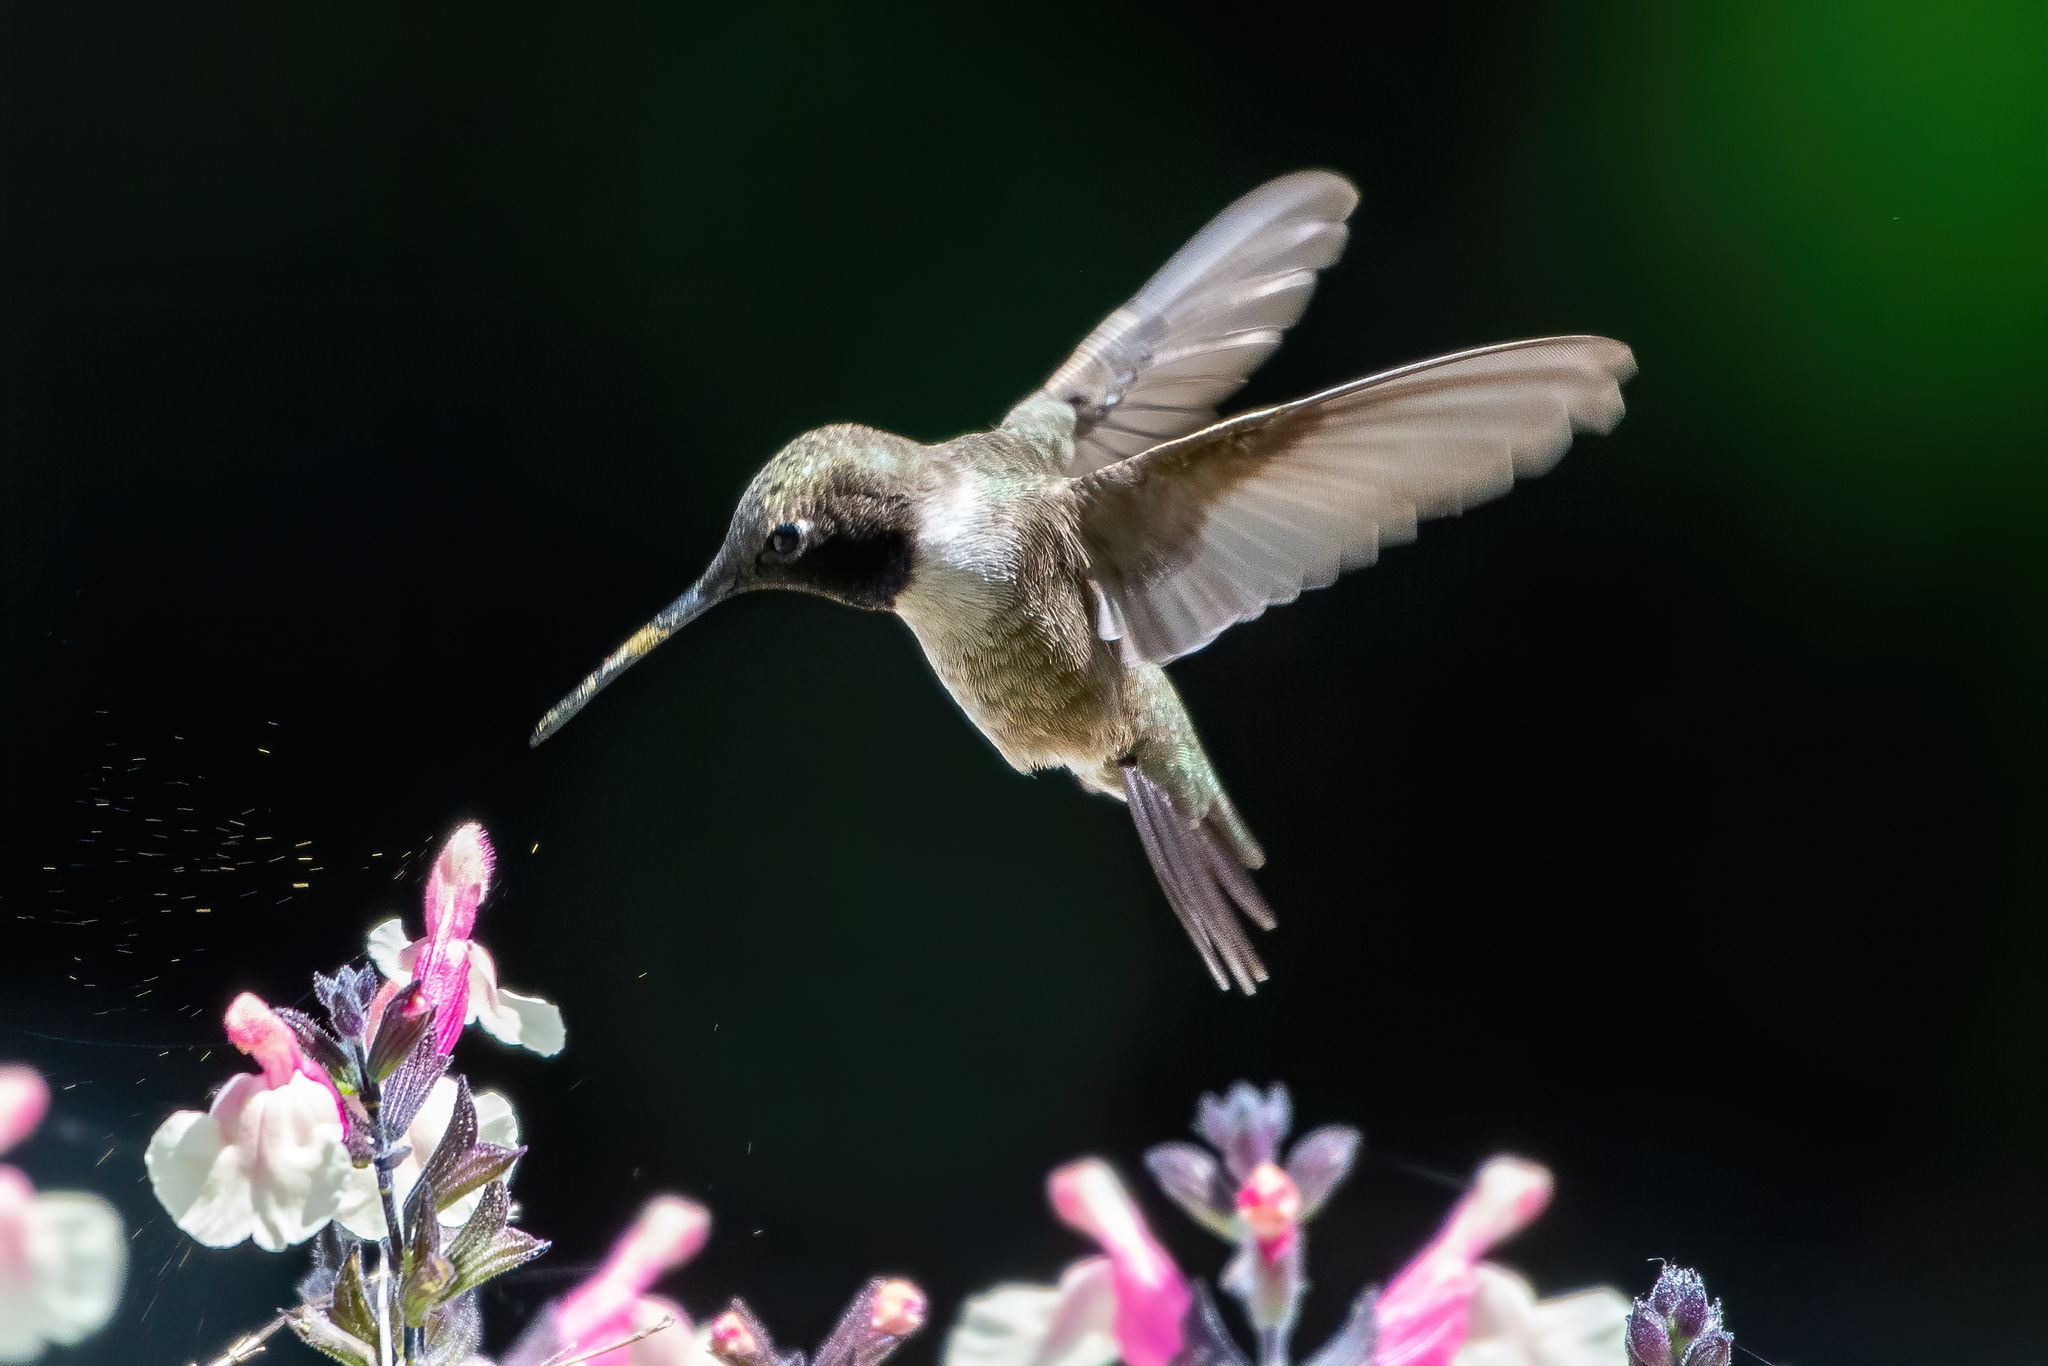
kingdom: Animalia
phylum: Chordata
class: Aves
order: Apodiformes
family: Trochilidae
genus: Archilochus
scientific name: Archilochus alexandri
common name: Black-chinned hummingbird
